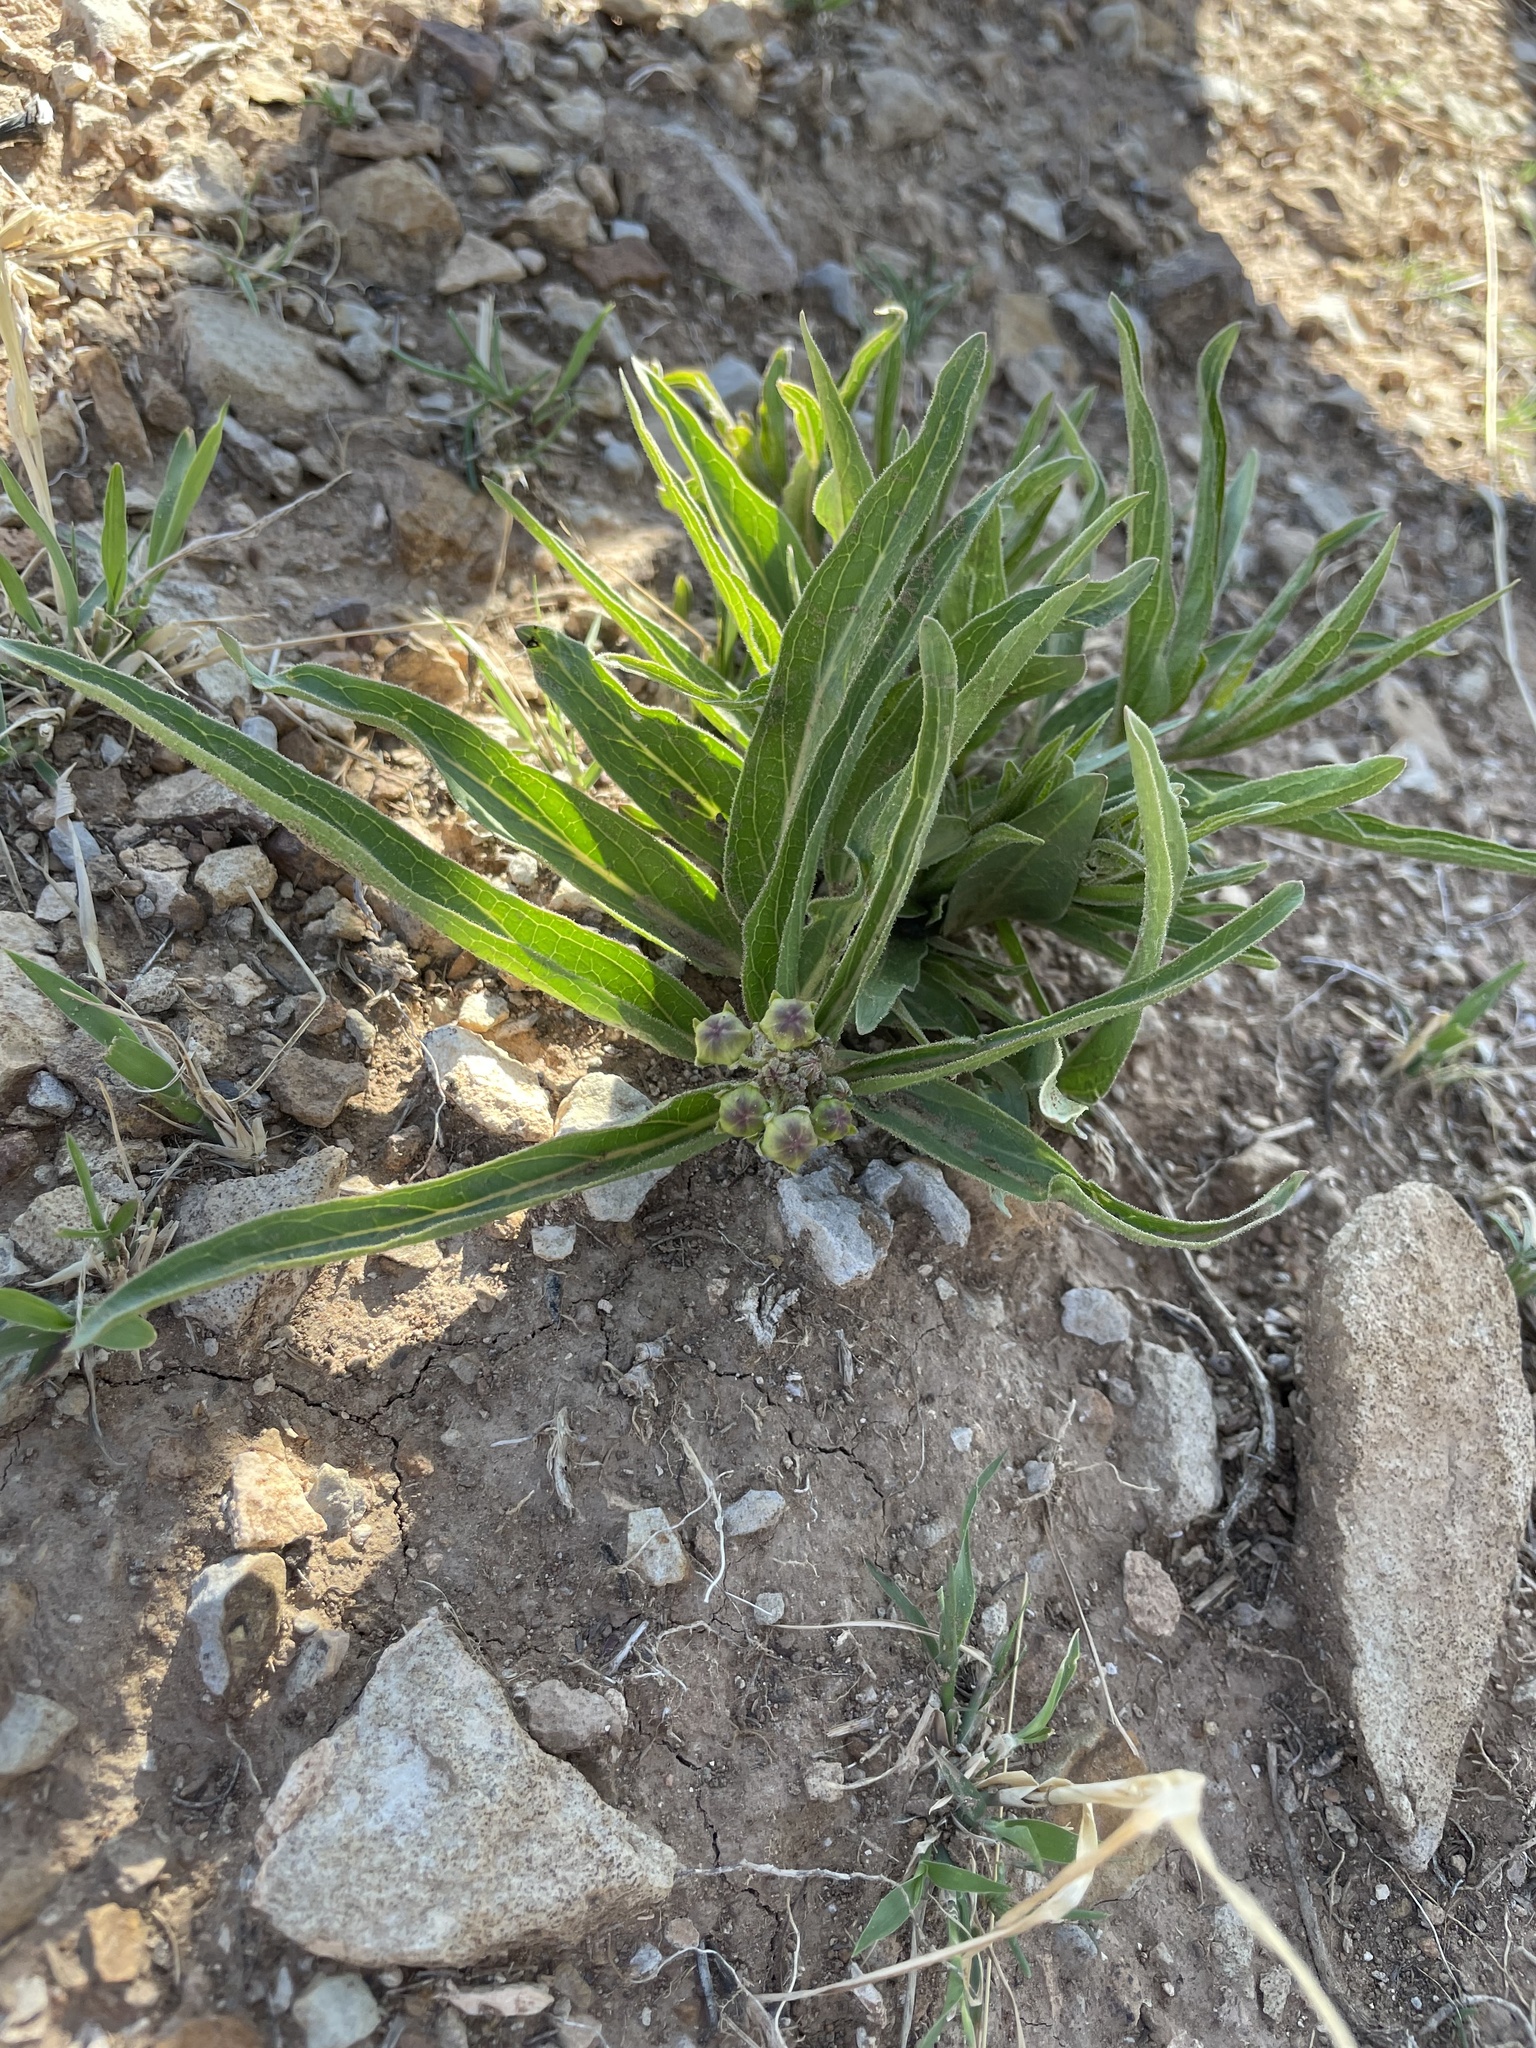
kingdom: Plantae
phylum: Tracheophyta
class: Magnoliopsida
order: Gentianales
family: Apocynaceae
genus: Asclepias
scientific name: Asclepias asperula
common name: Antelope horns
